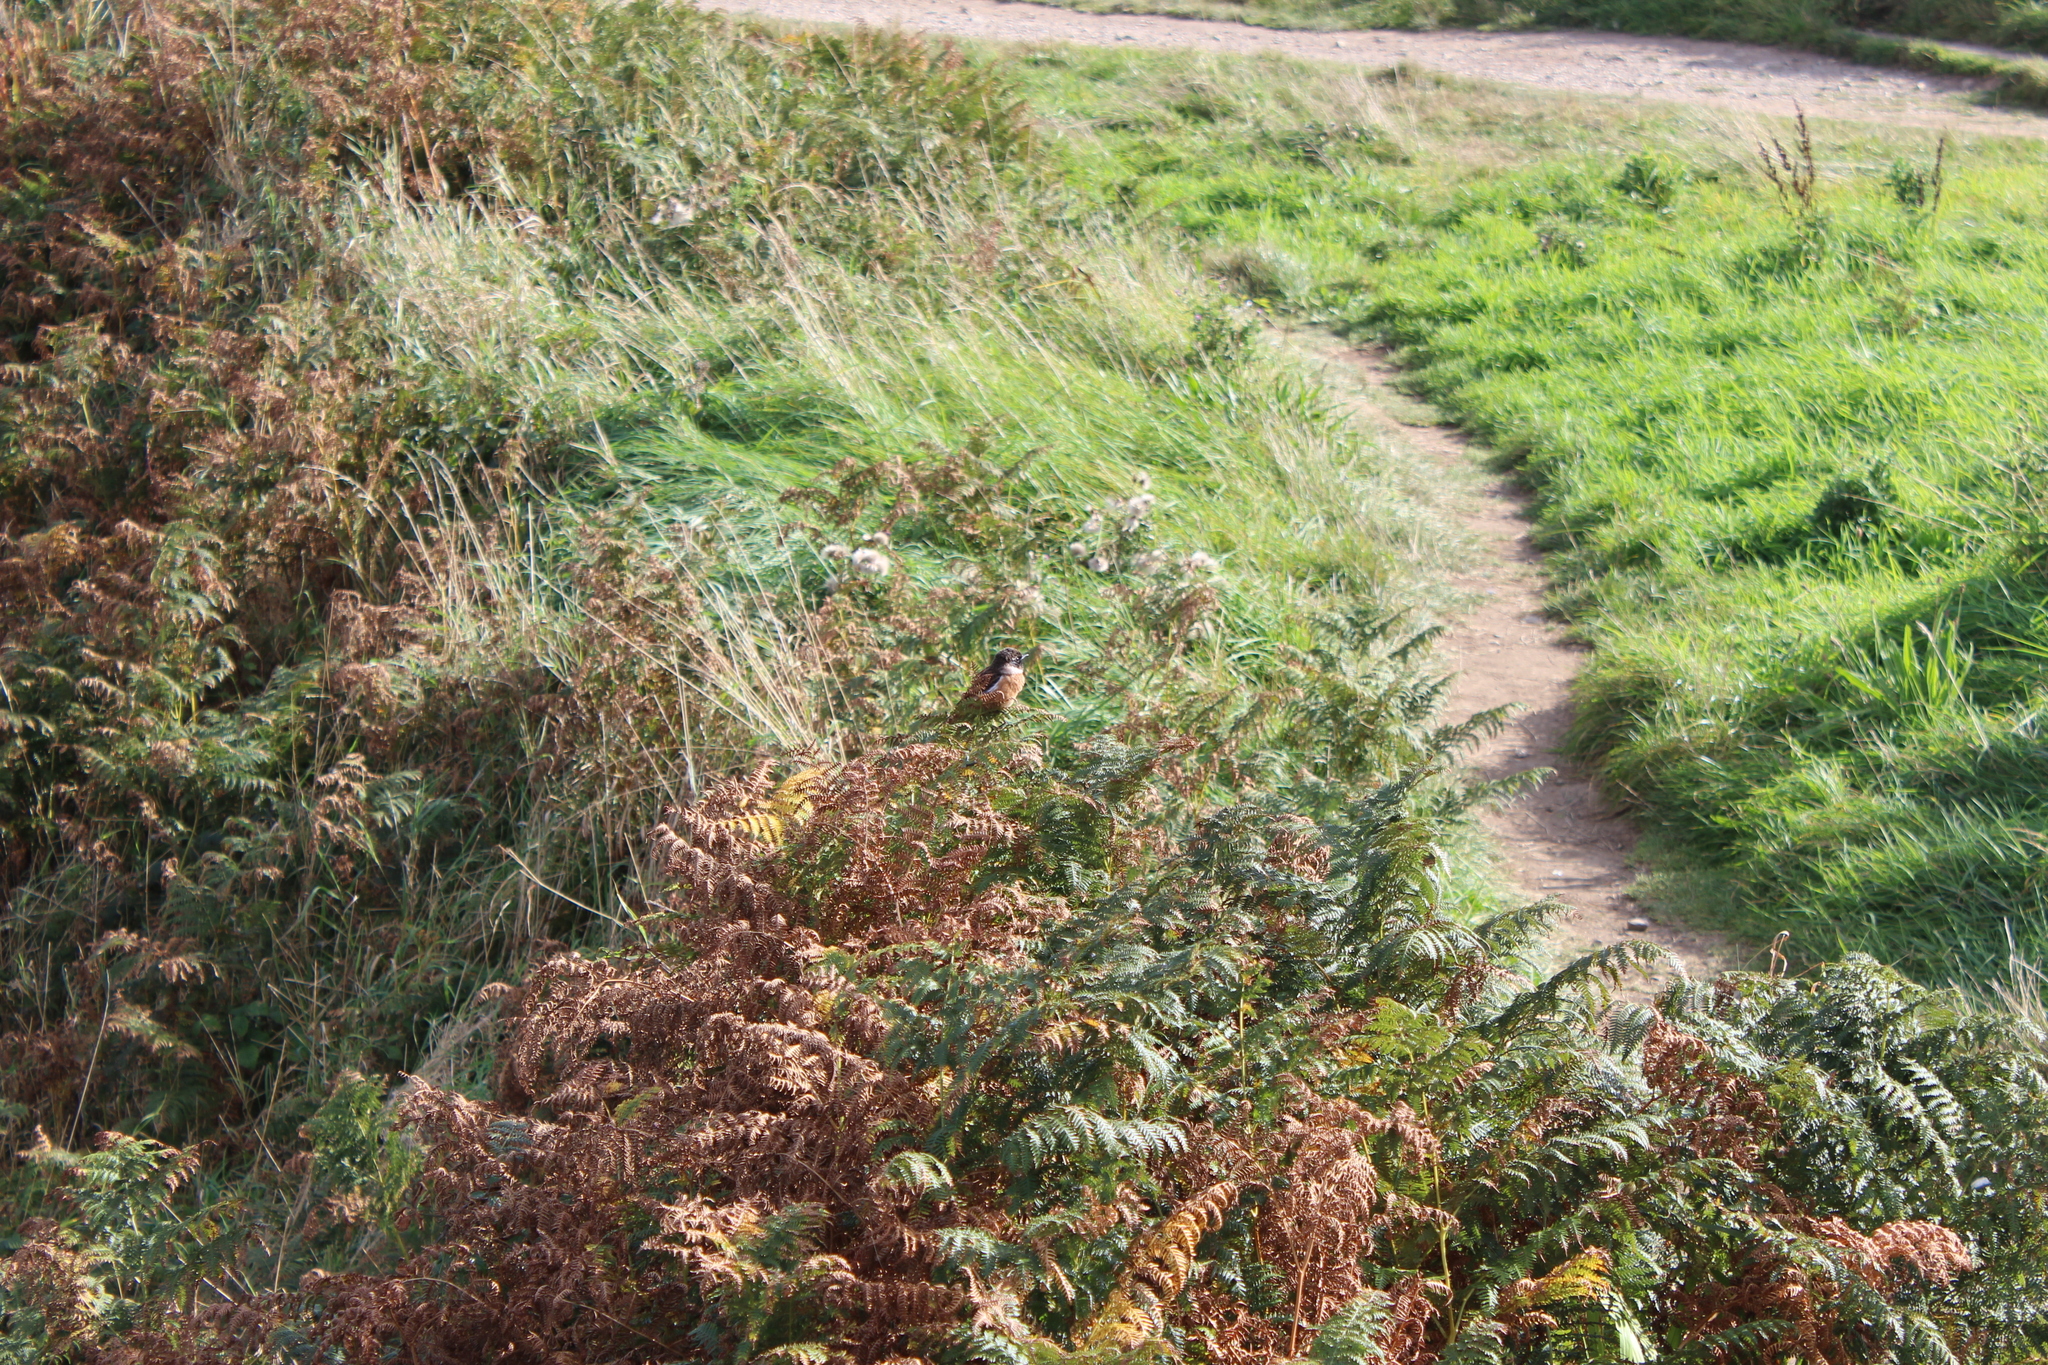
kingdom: Animalia
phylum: Chordata
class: Aves
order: Passeriformes
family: Muscicapidae
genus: Saxicola
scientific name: Saxicola rubicola
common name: European stonechat
